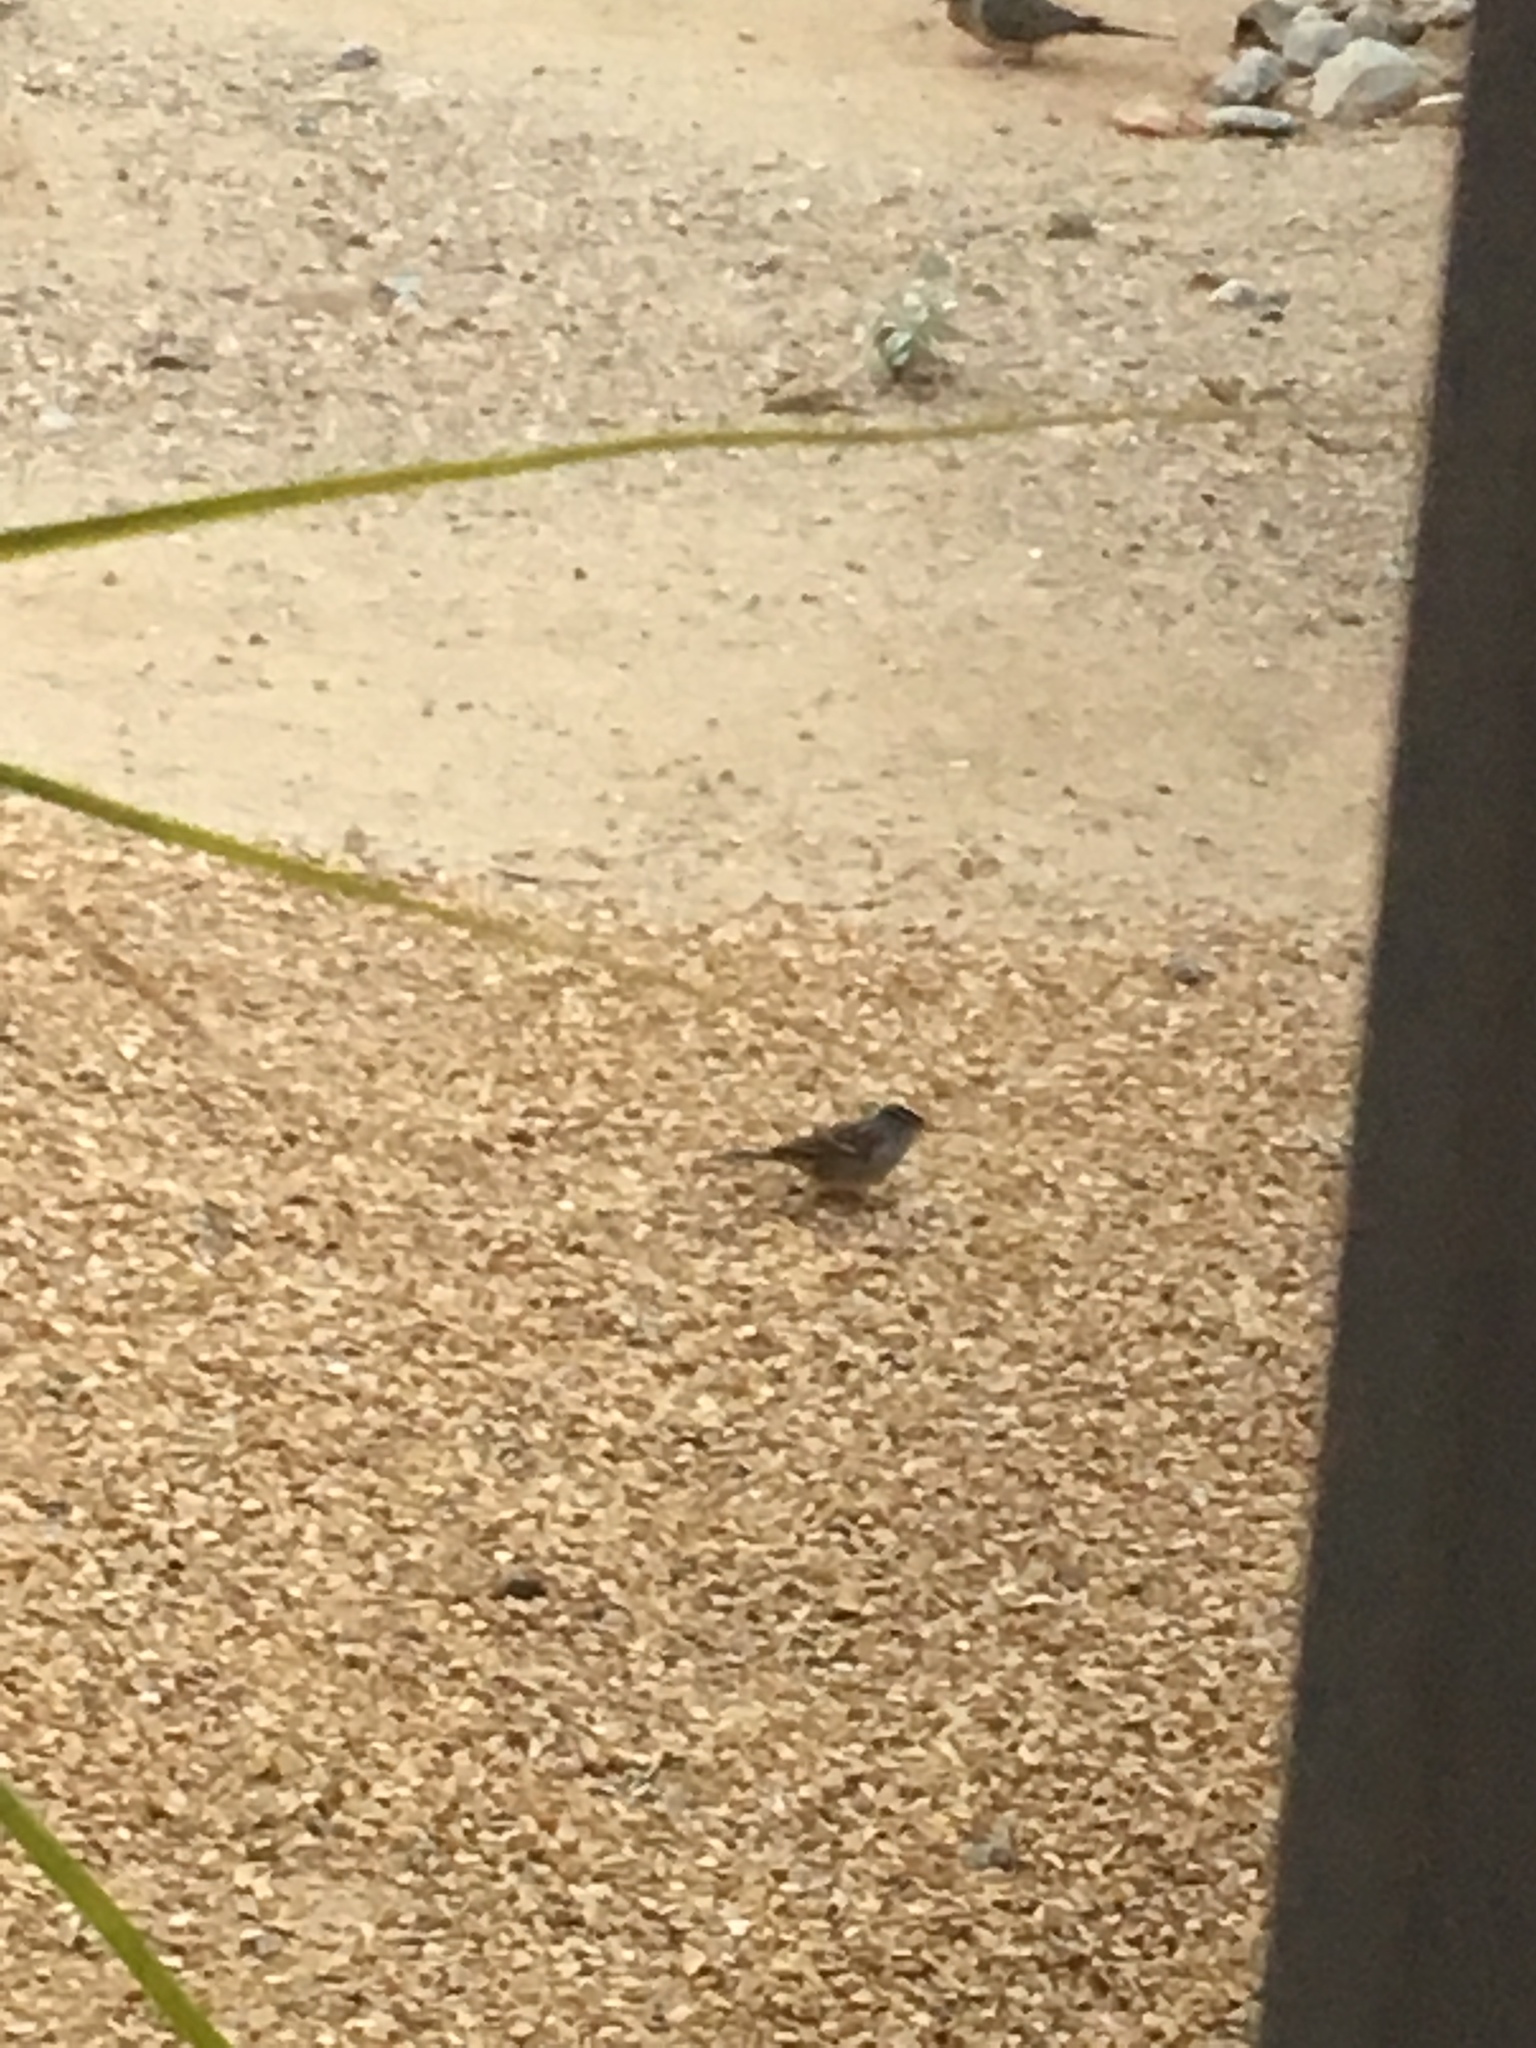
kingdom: Animalia
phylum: Chordata
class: Aves
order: Passeriformes
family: Passerellidae
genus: Zonotrichia
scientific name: Zonotrichia leucophrys
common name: White-crowned sparrow
